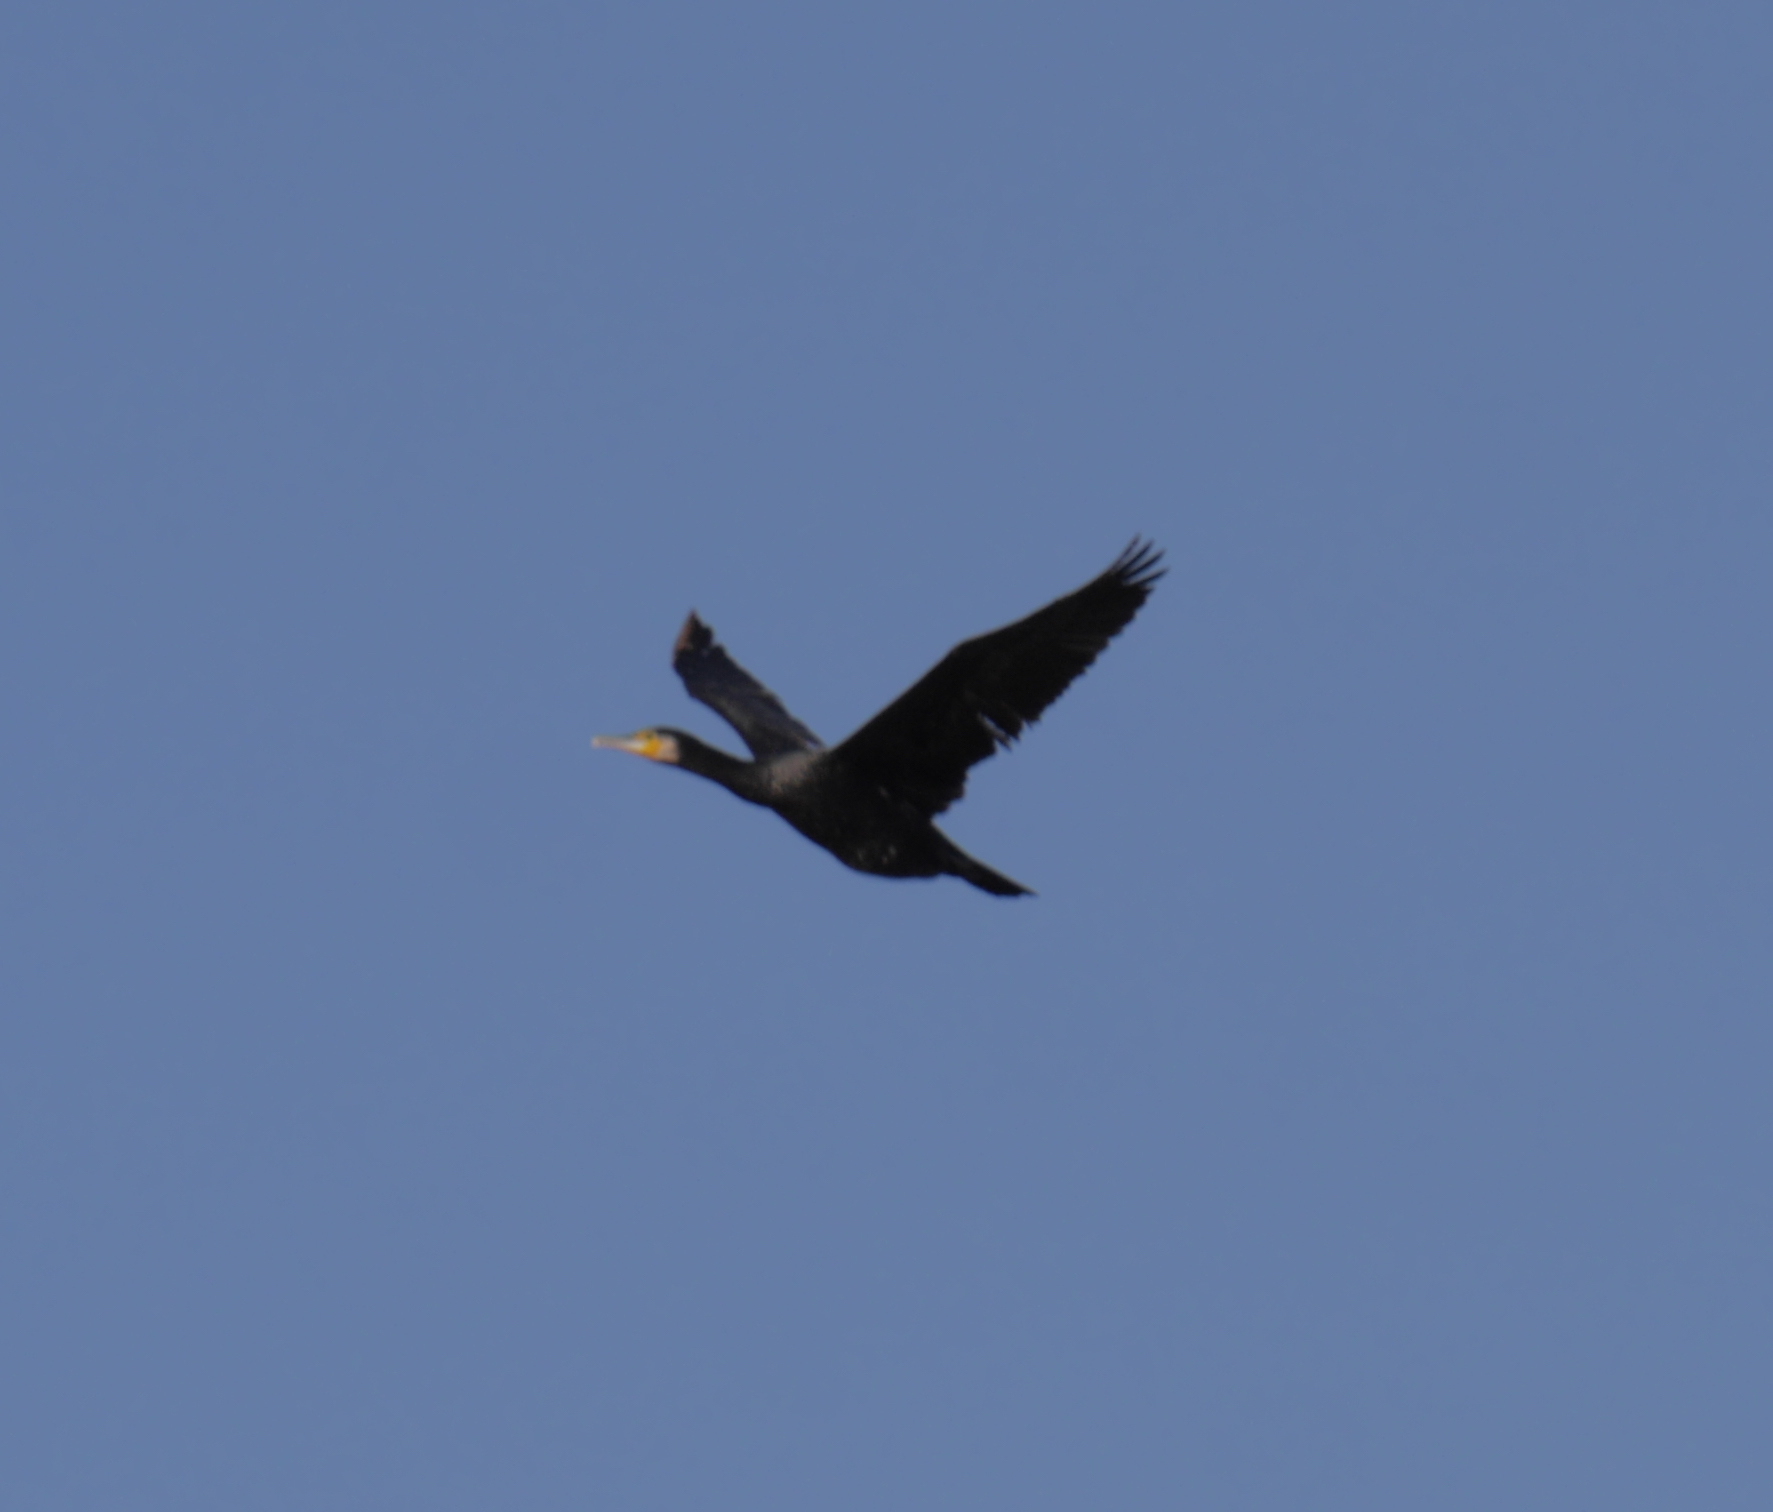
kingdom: Animalia
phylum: Chordata
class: Aves
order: Suliformes
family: Phalacrocoracidae
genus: Phalacrocorax
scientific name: Phalacrocorax carbo
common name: Great cormorant
